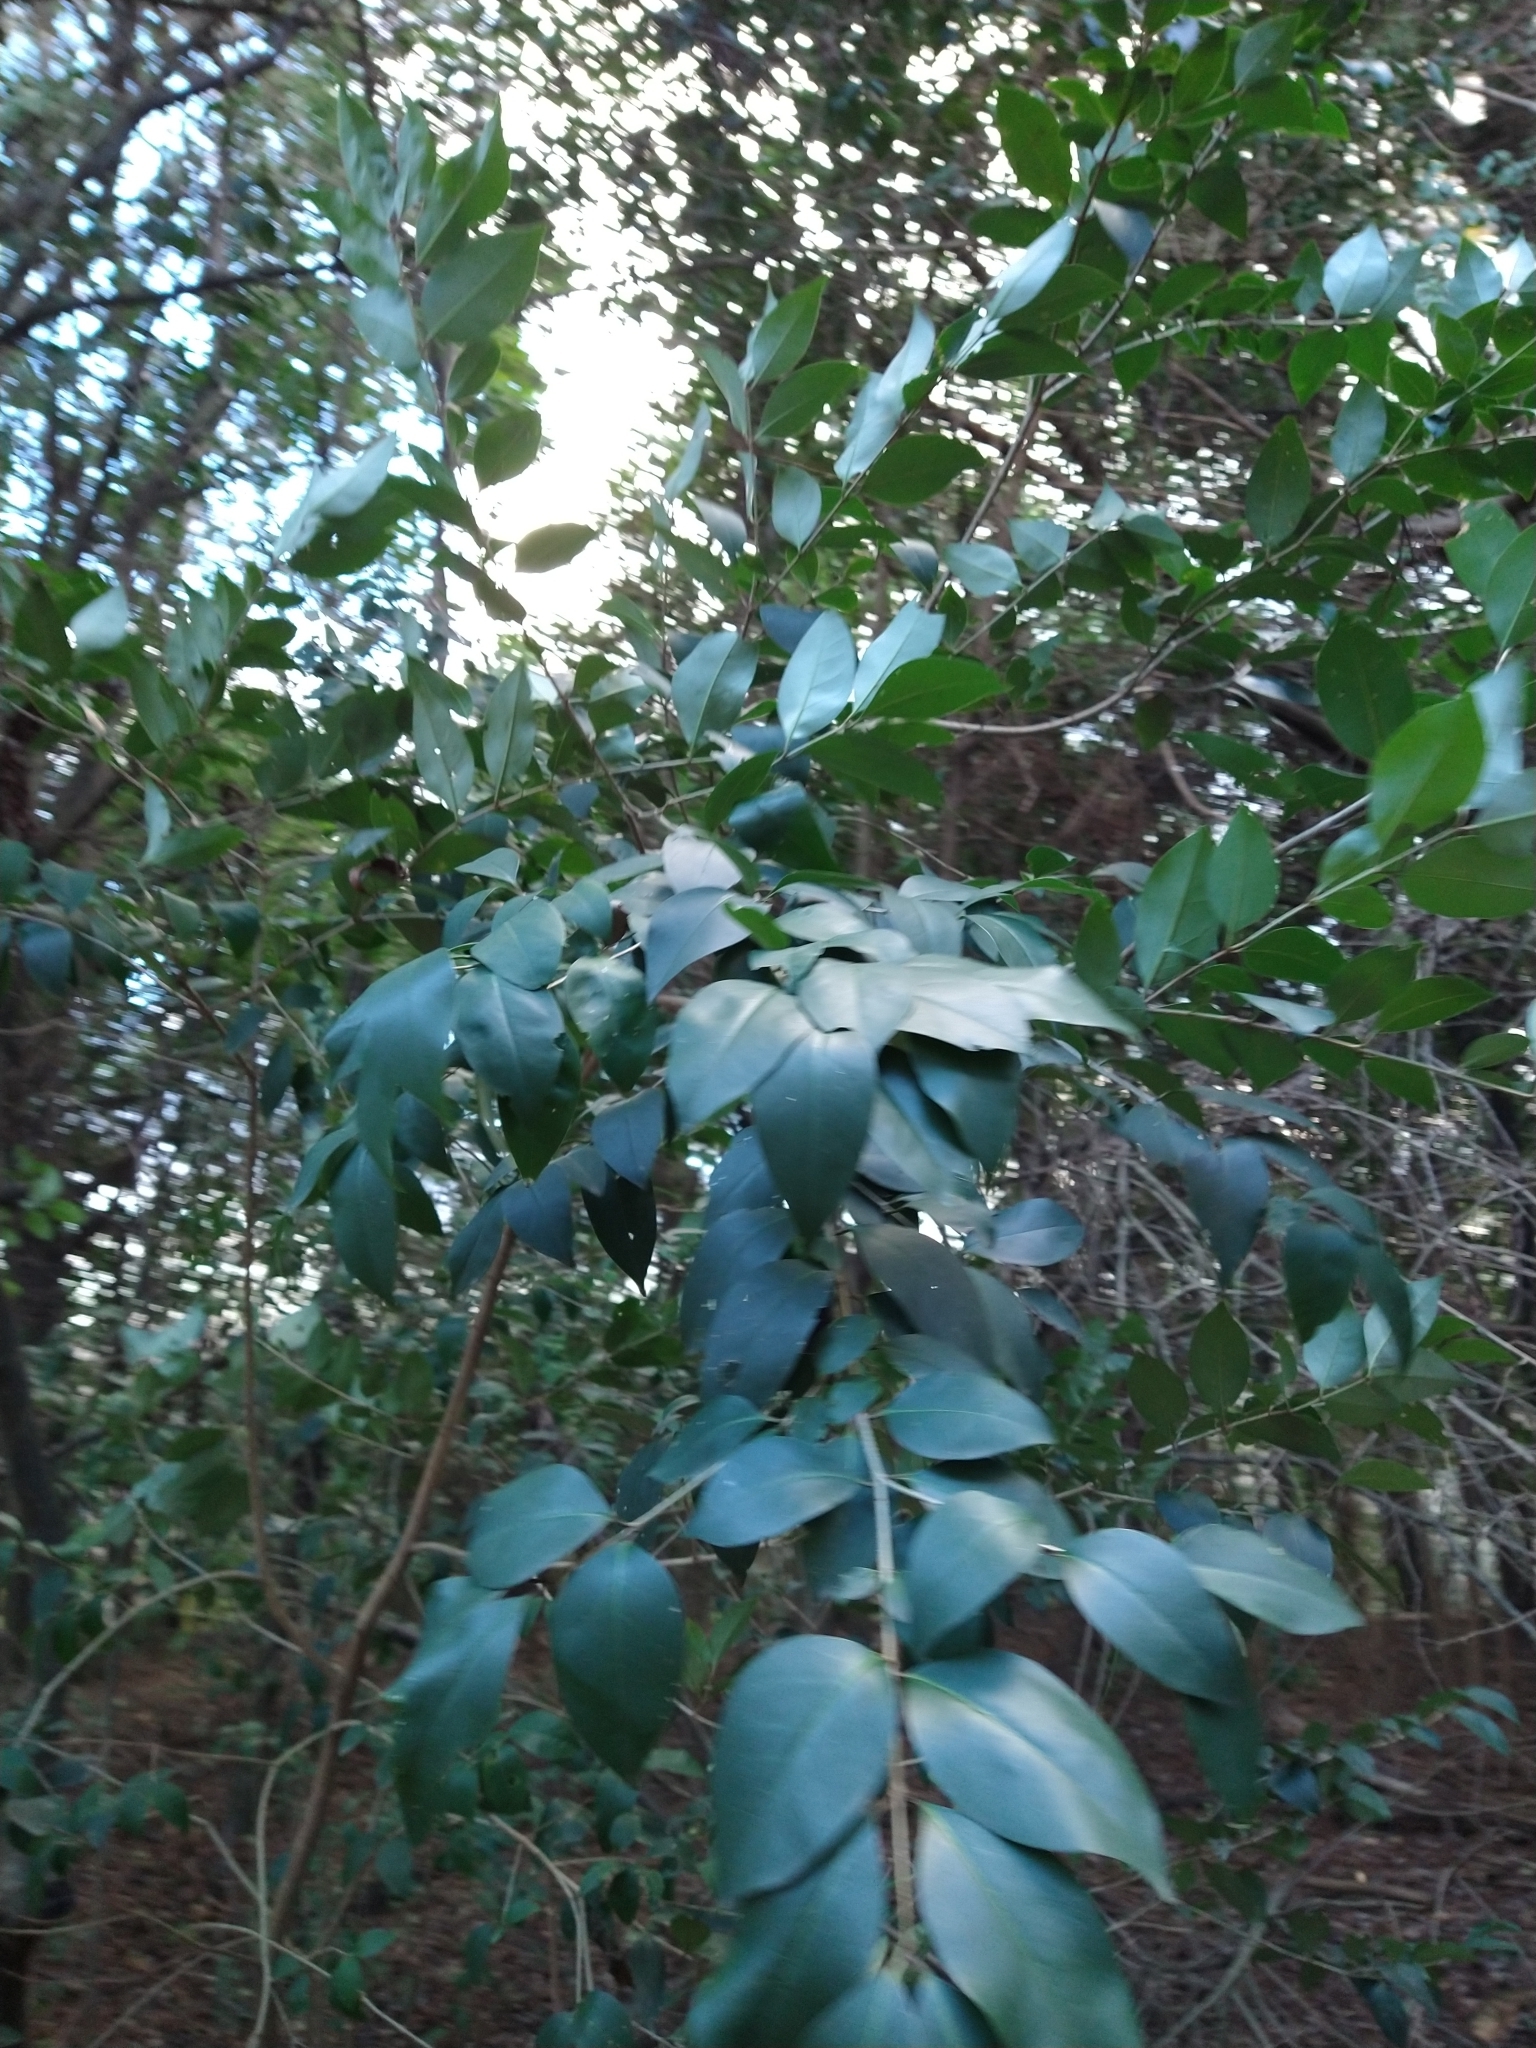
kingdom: Plantae
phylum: Tracheophyta
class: Magnoliopsida
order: Lamiales
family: Oleaceae
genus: Ligustrum
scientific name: Ligustrum lucidum
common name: Glossy privet
